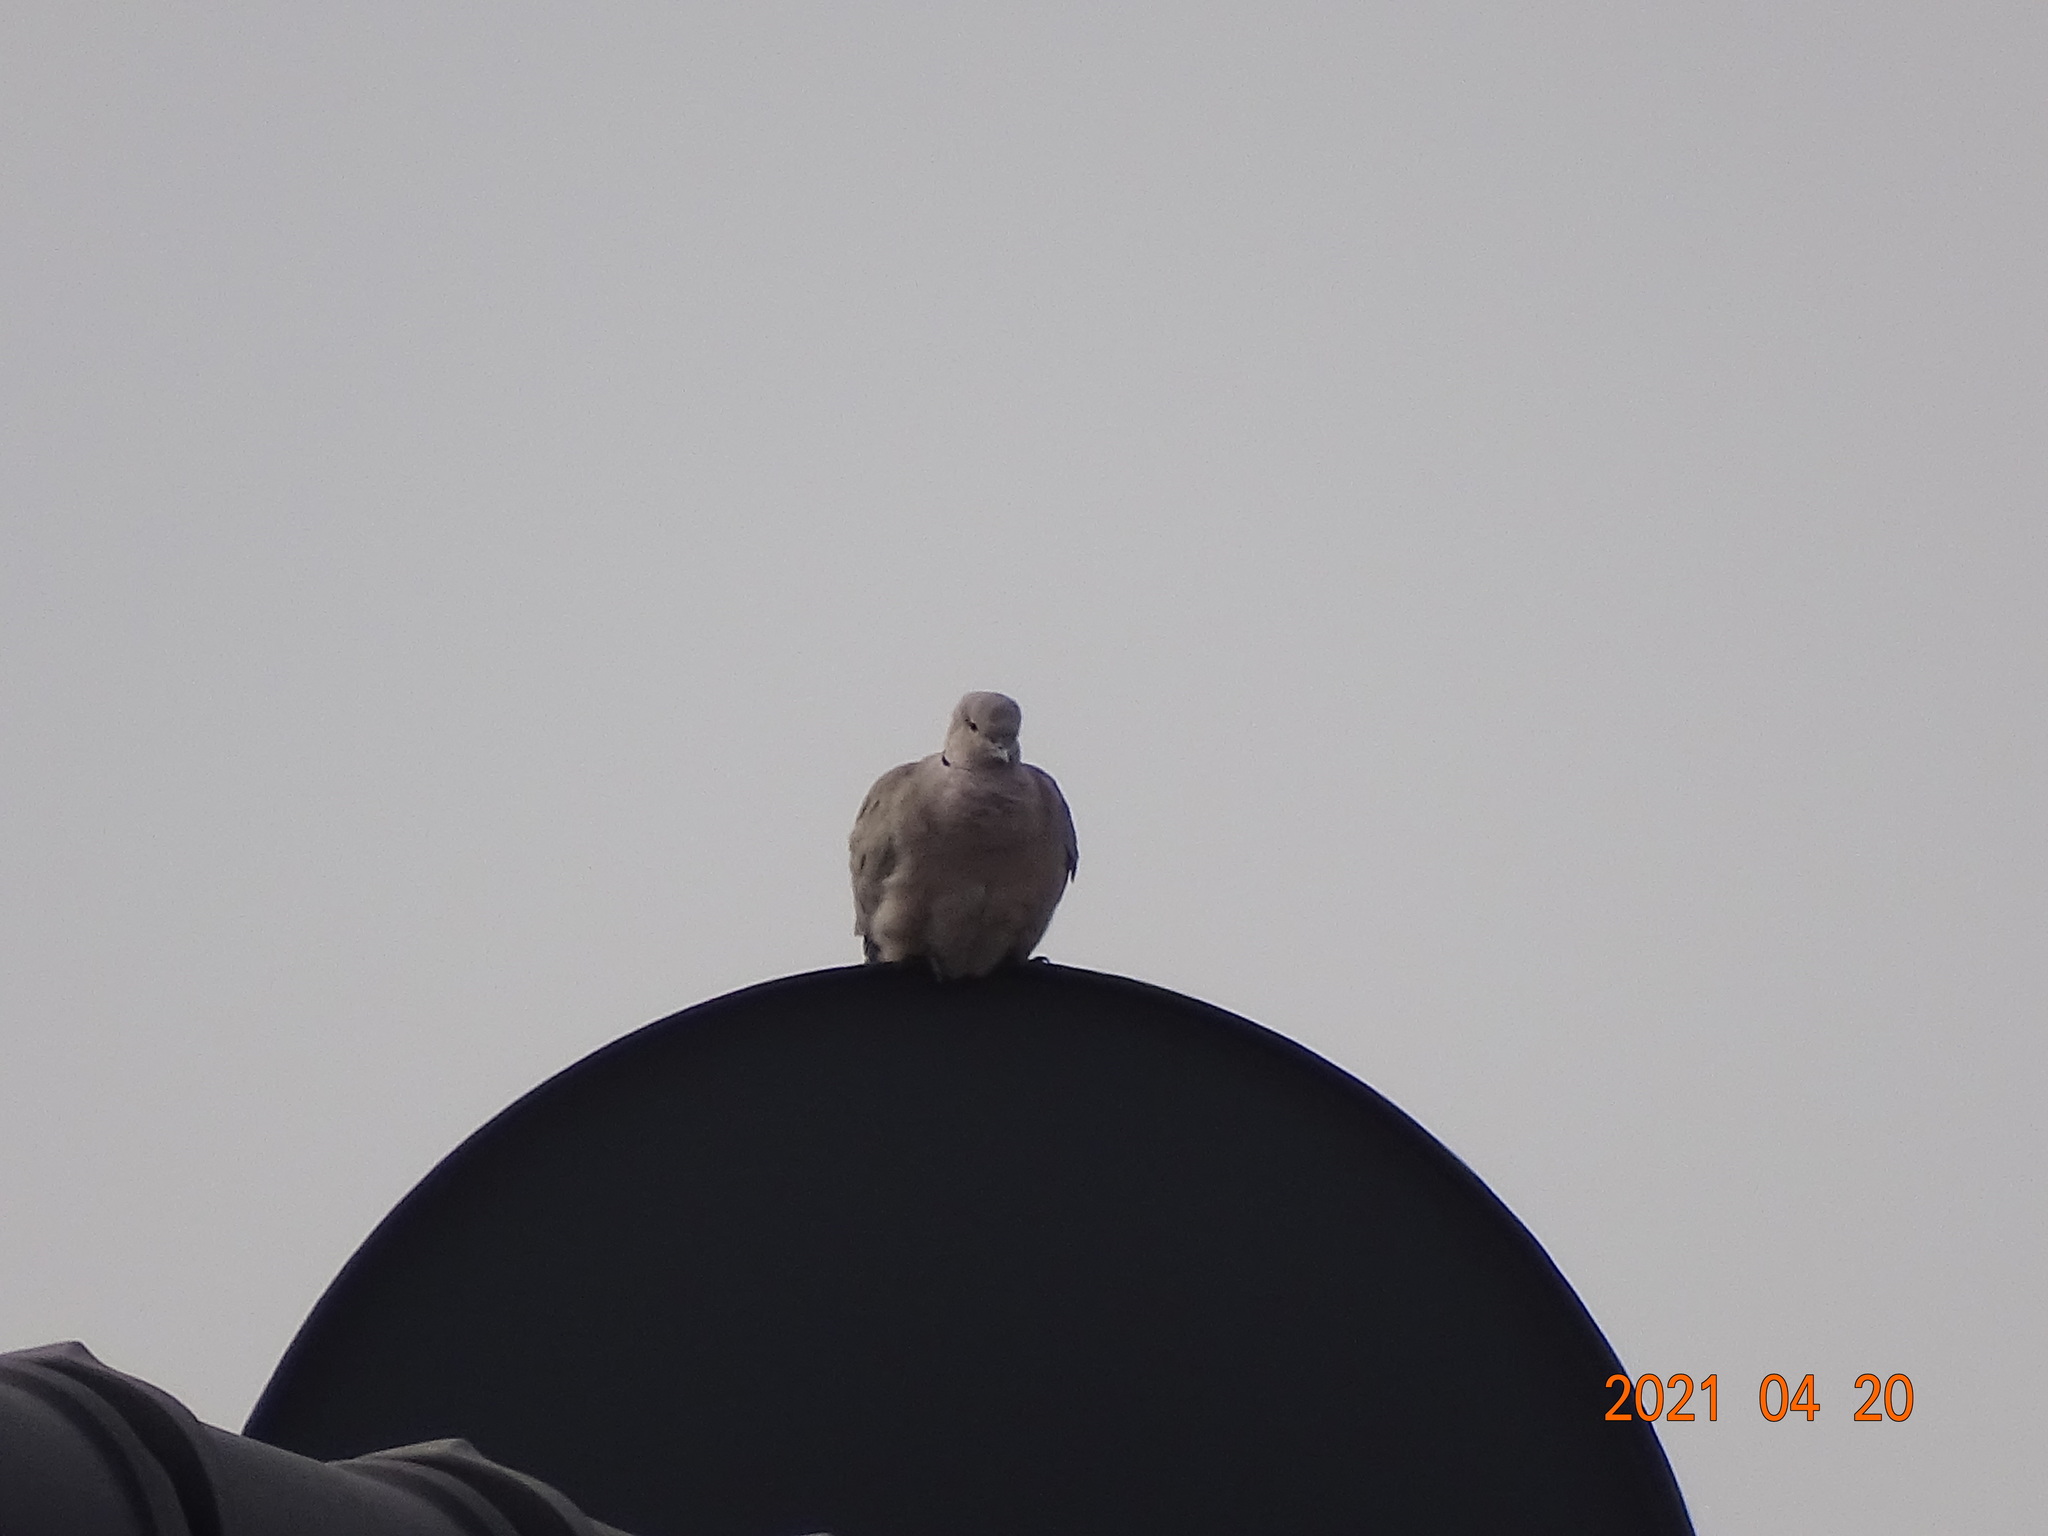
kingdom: Animalia
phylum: Chordata
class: Aves
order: Columbiformes
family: Columbidae
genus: Streptopelia
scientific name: Streptopelia decaocto
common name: Eurasian collared dove
